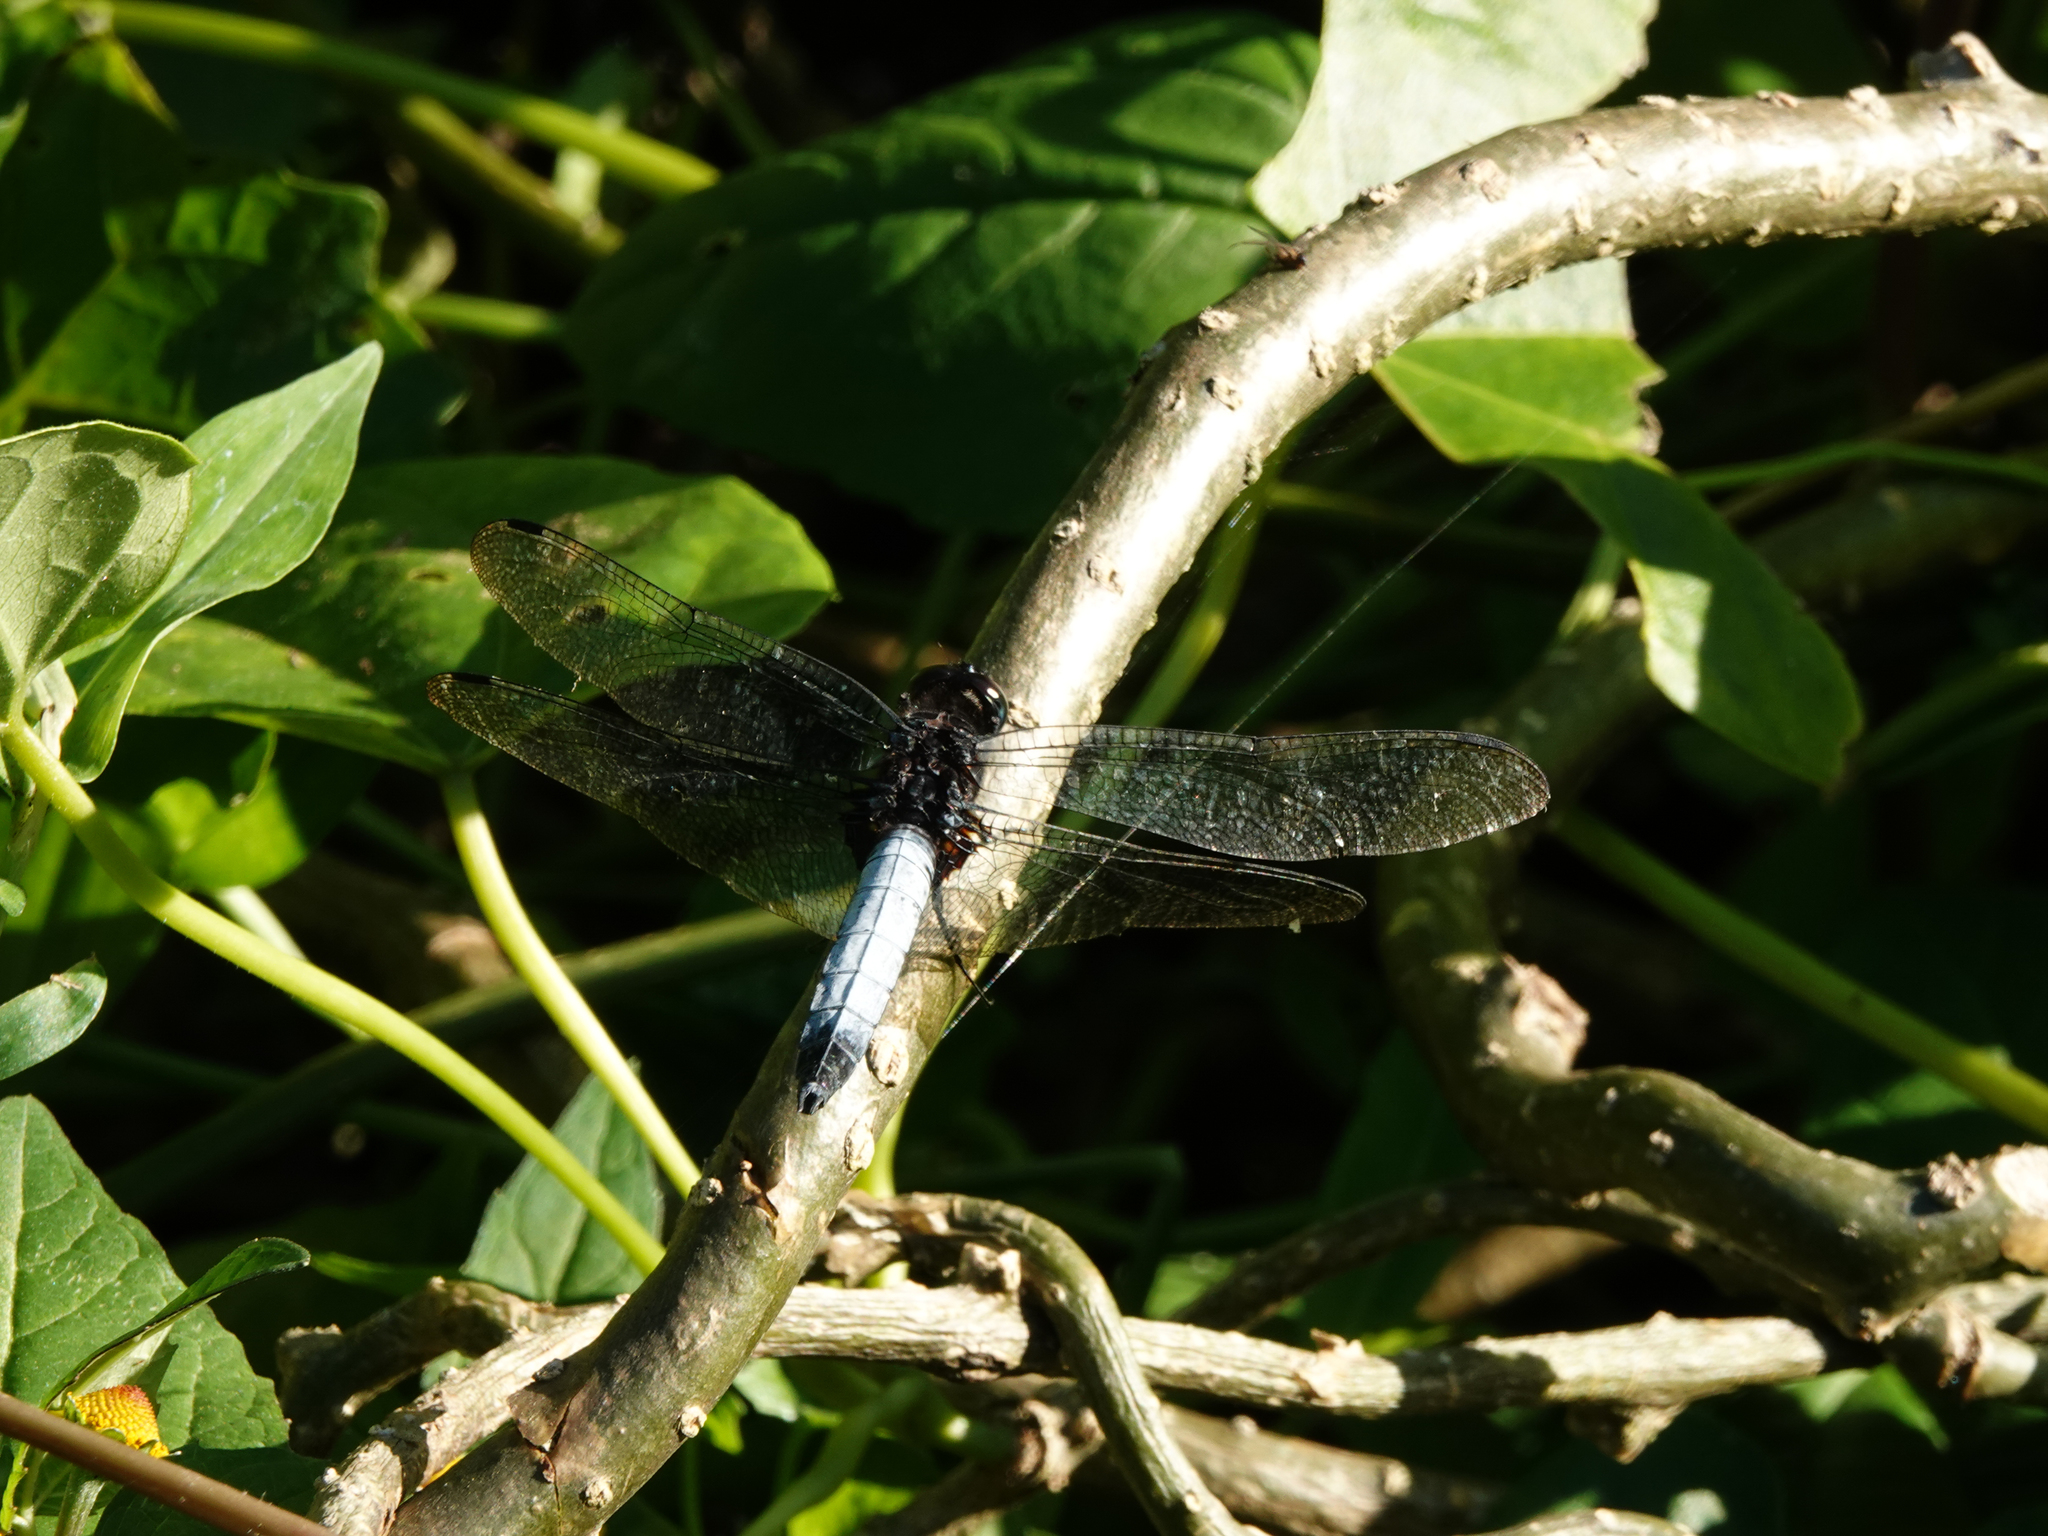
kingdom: Animalia
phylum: Arthropoda
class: Insecta
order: Odonata
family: Libellulidae
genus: Orthetrum
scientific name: Orthetrum triangulare
